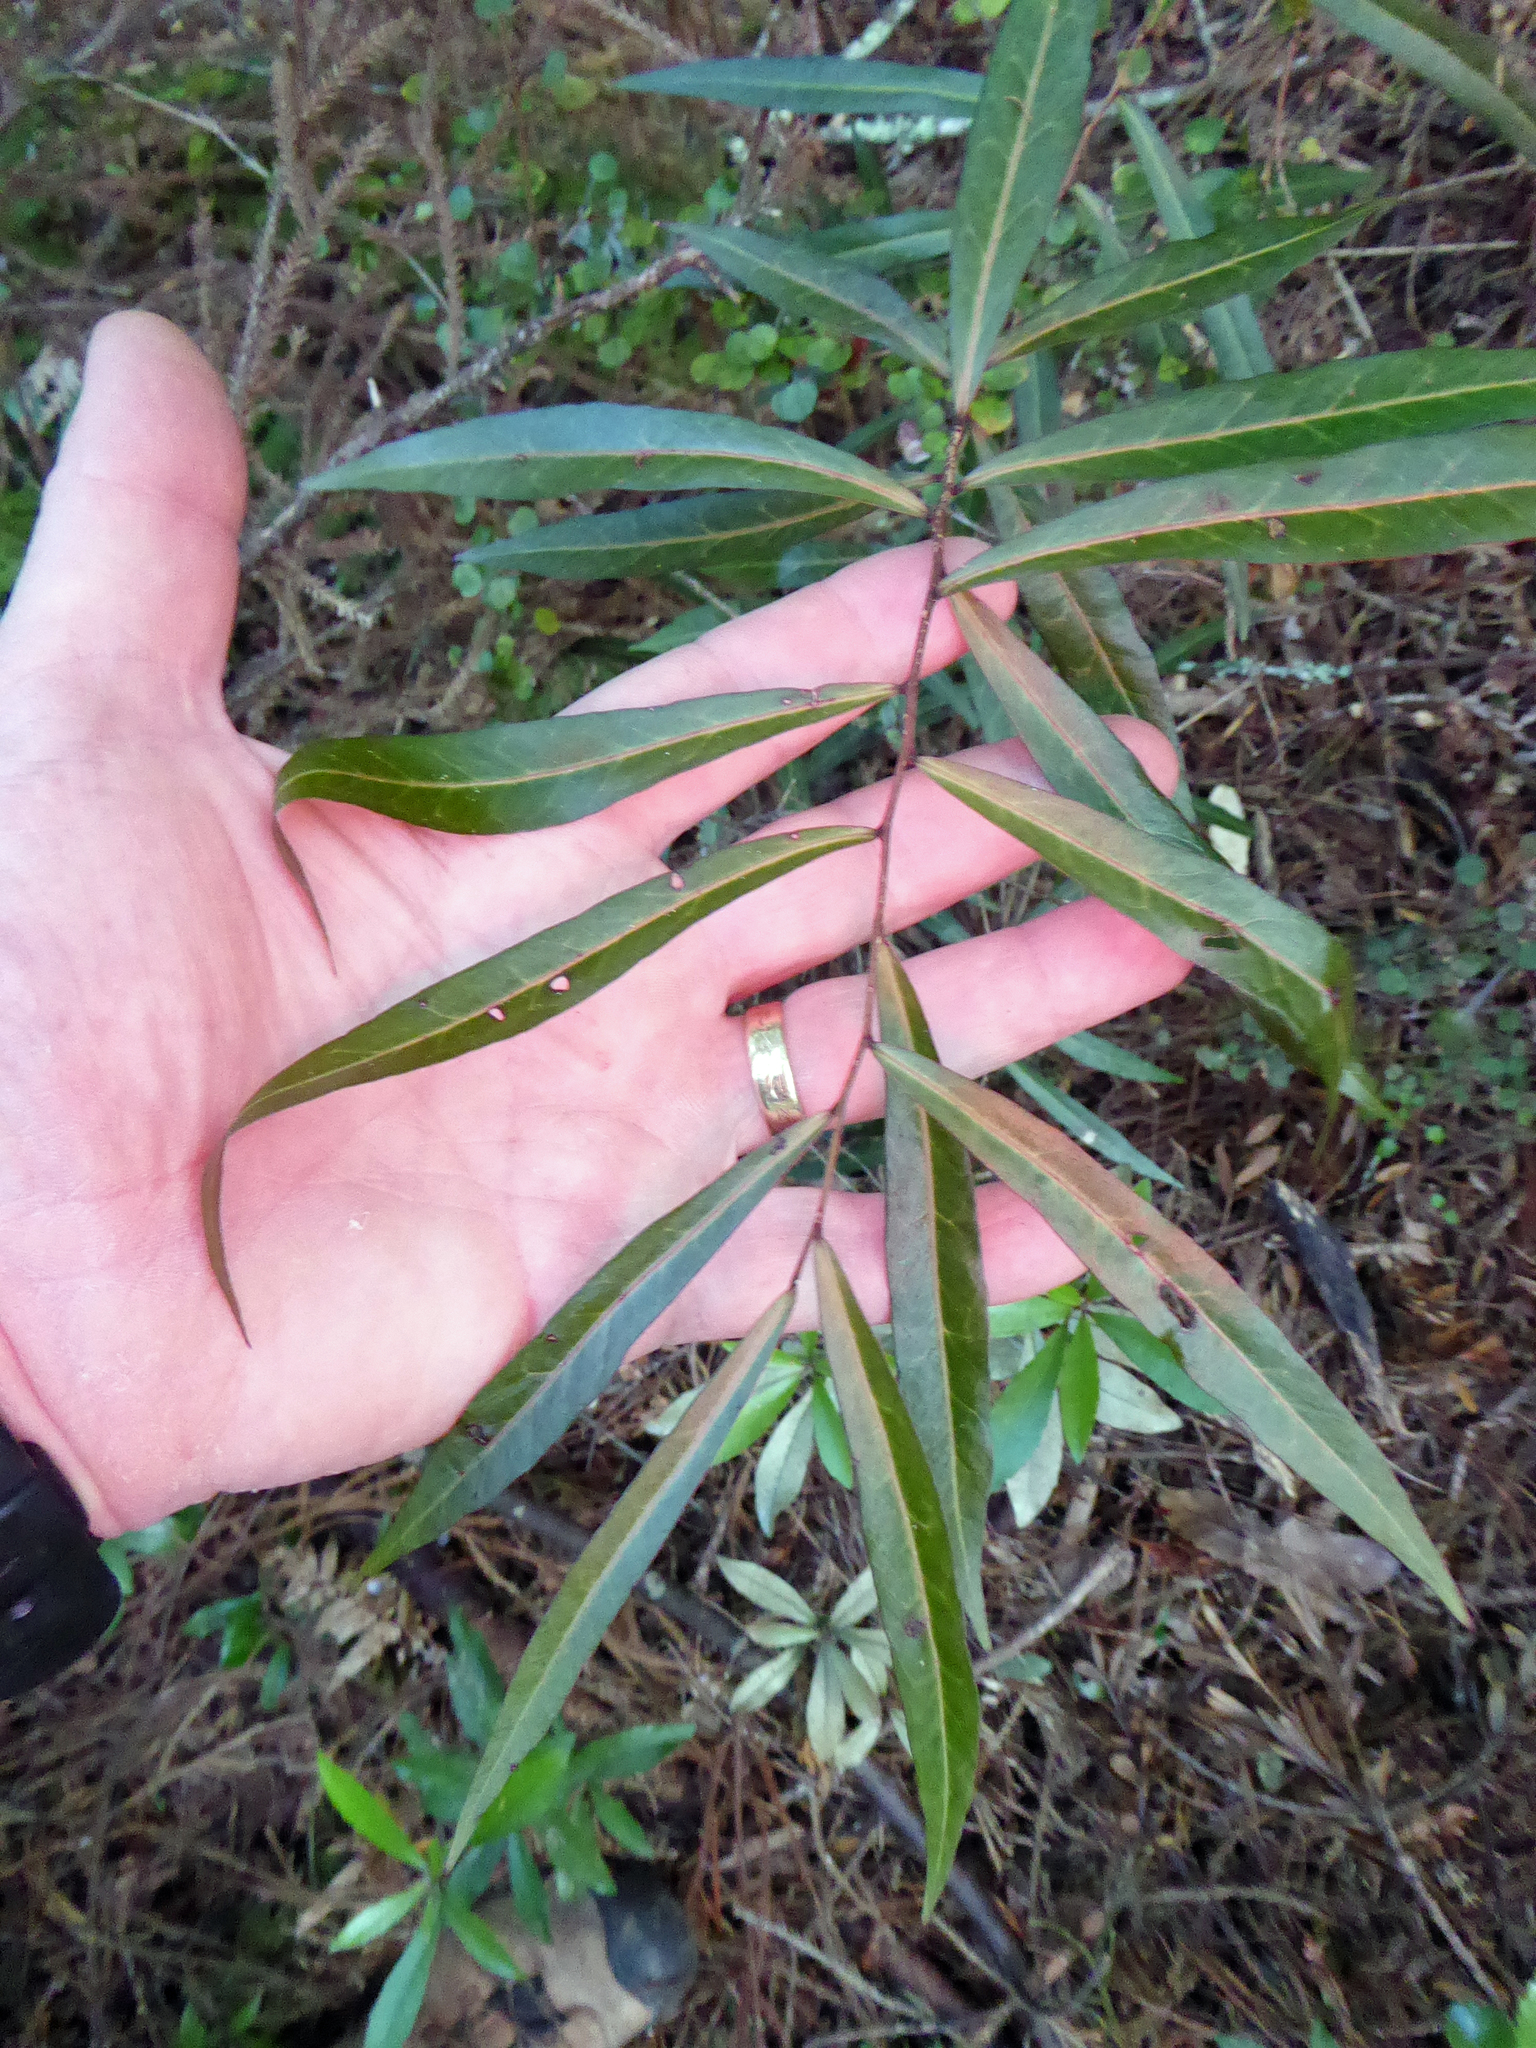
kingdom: Plantae
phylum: Tracheophyta
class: Magnoliopsida
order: Santalales
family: Nanodeaceae
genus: Mida
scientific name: Mida salicifolia
